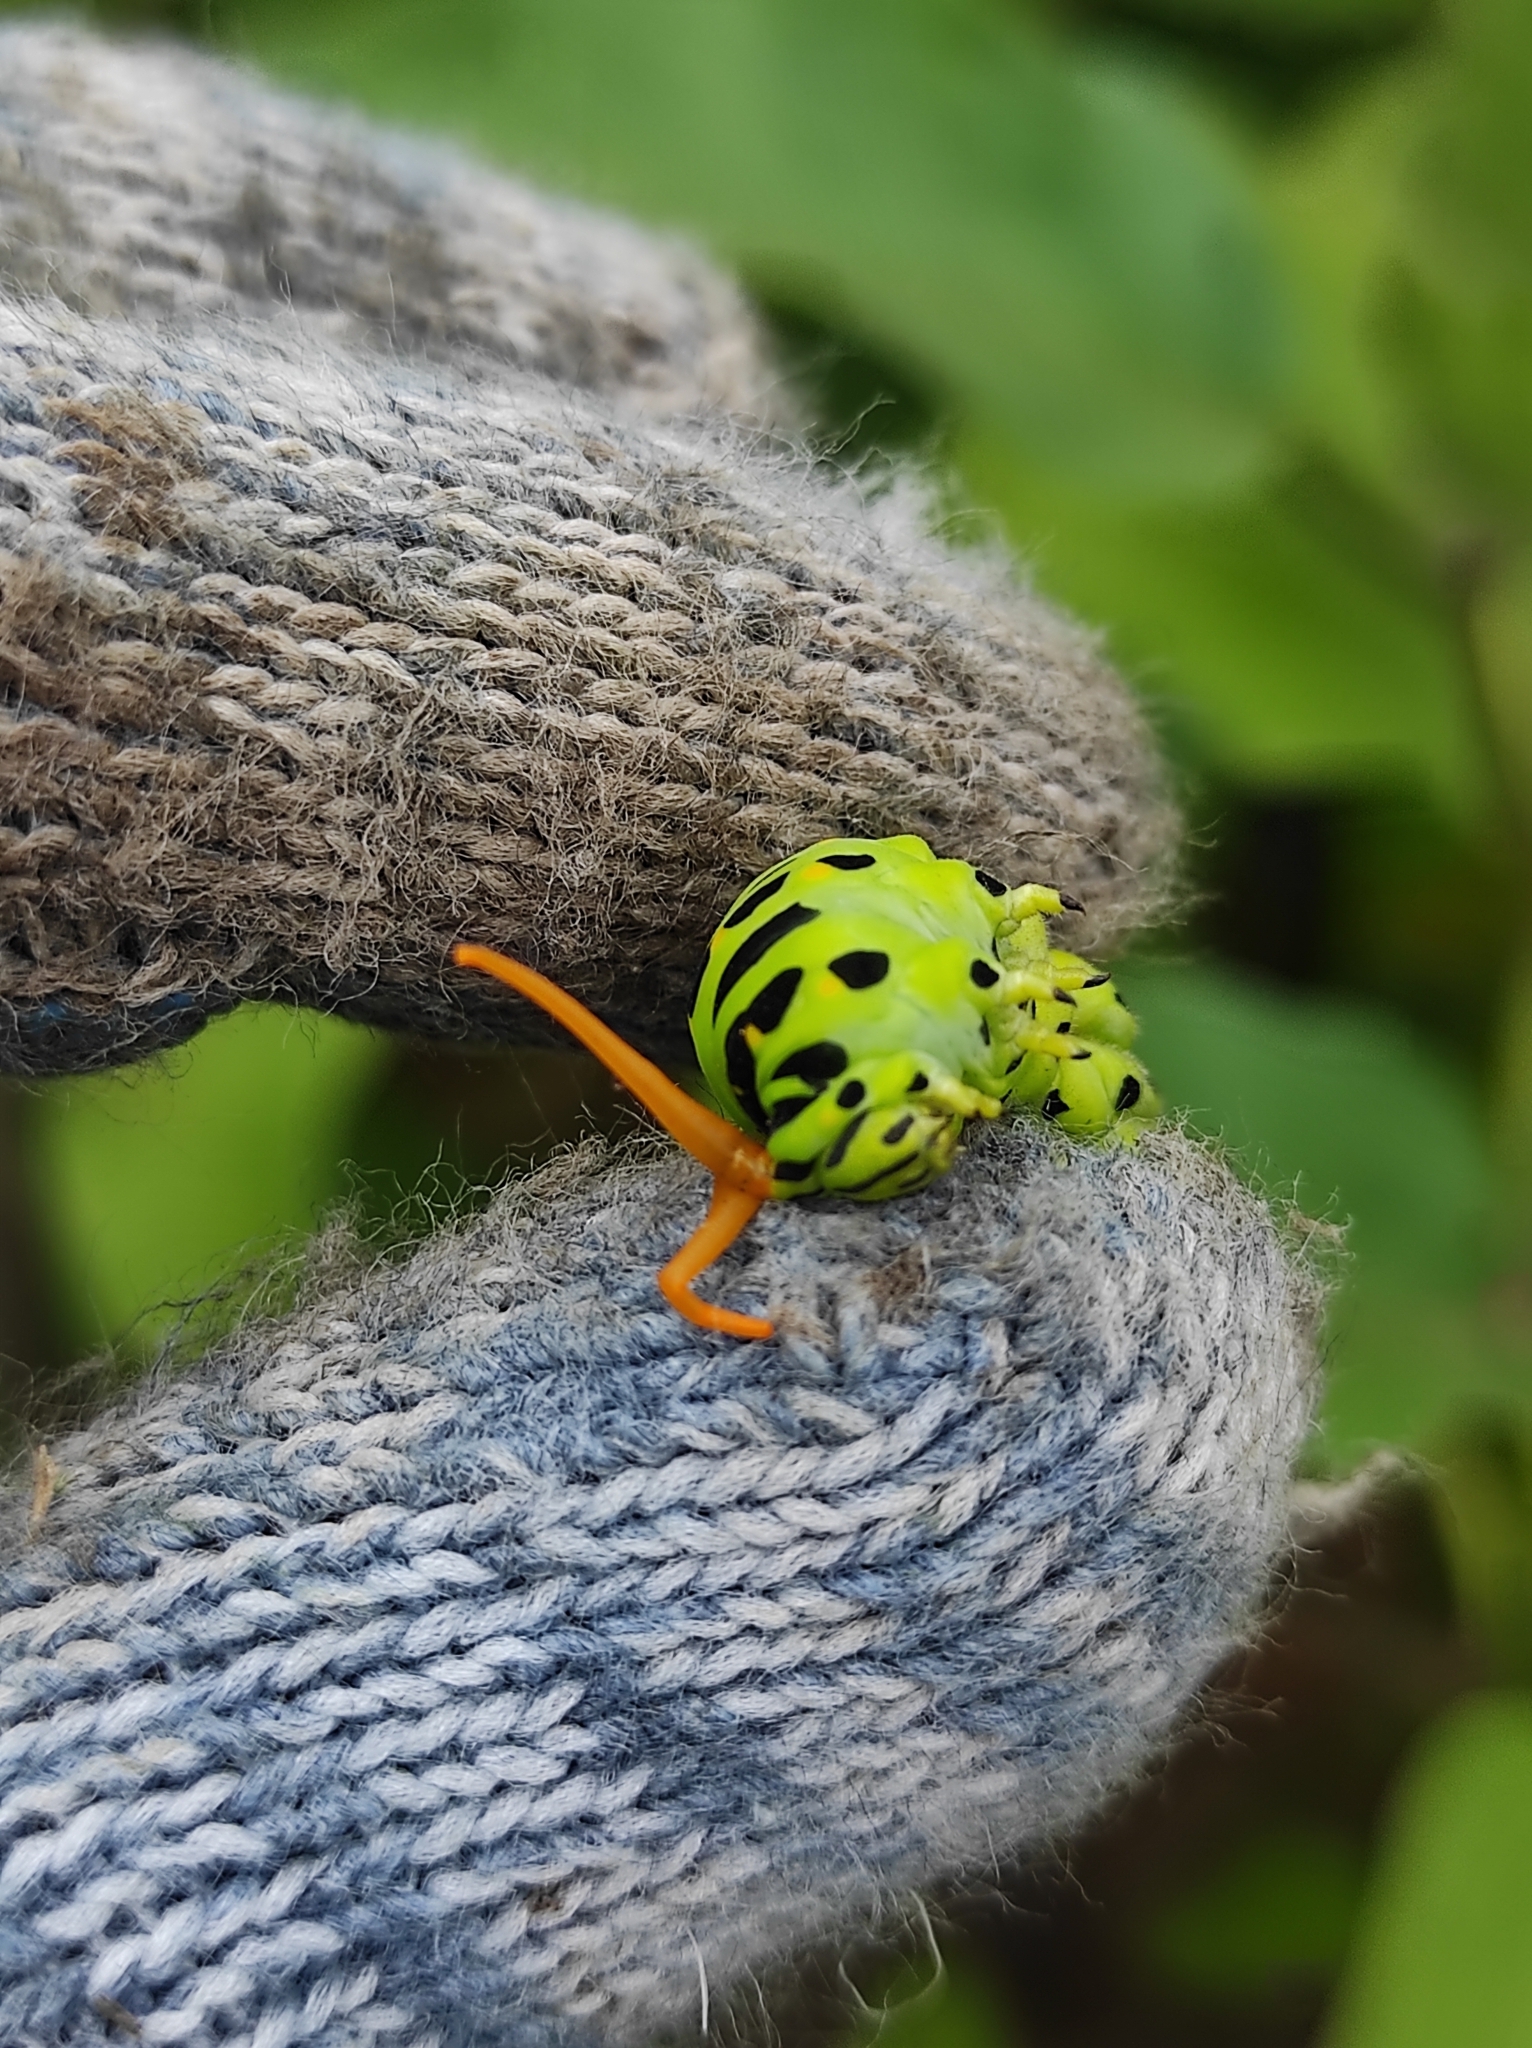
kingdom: Animalia
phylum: Arthropoda
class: Insecta
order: Lepidoptera
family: Papilionidae
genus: Papilio
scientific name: Papilio machaon
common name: Swallowtail
